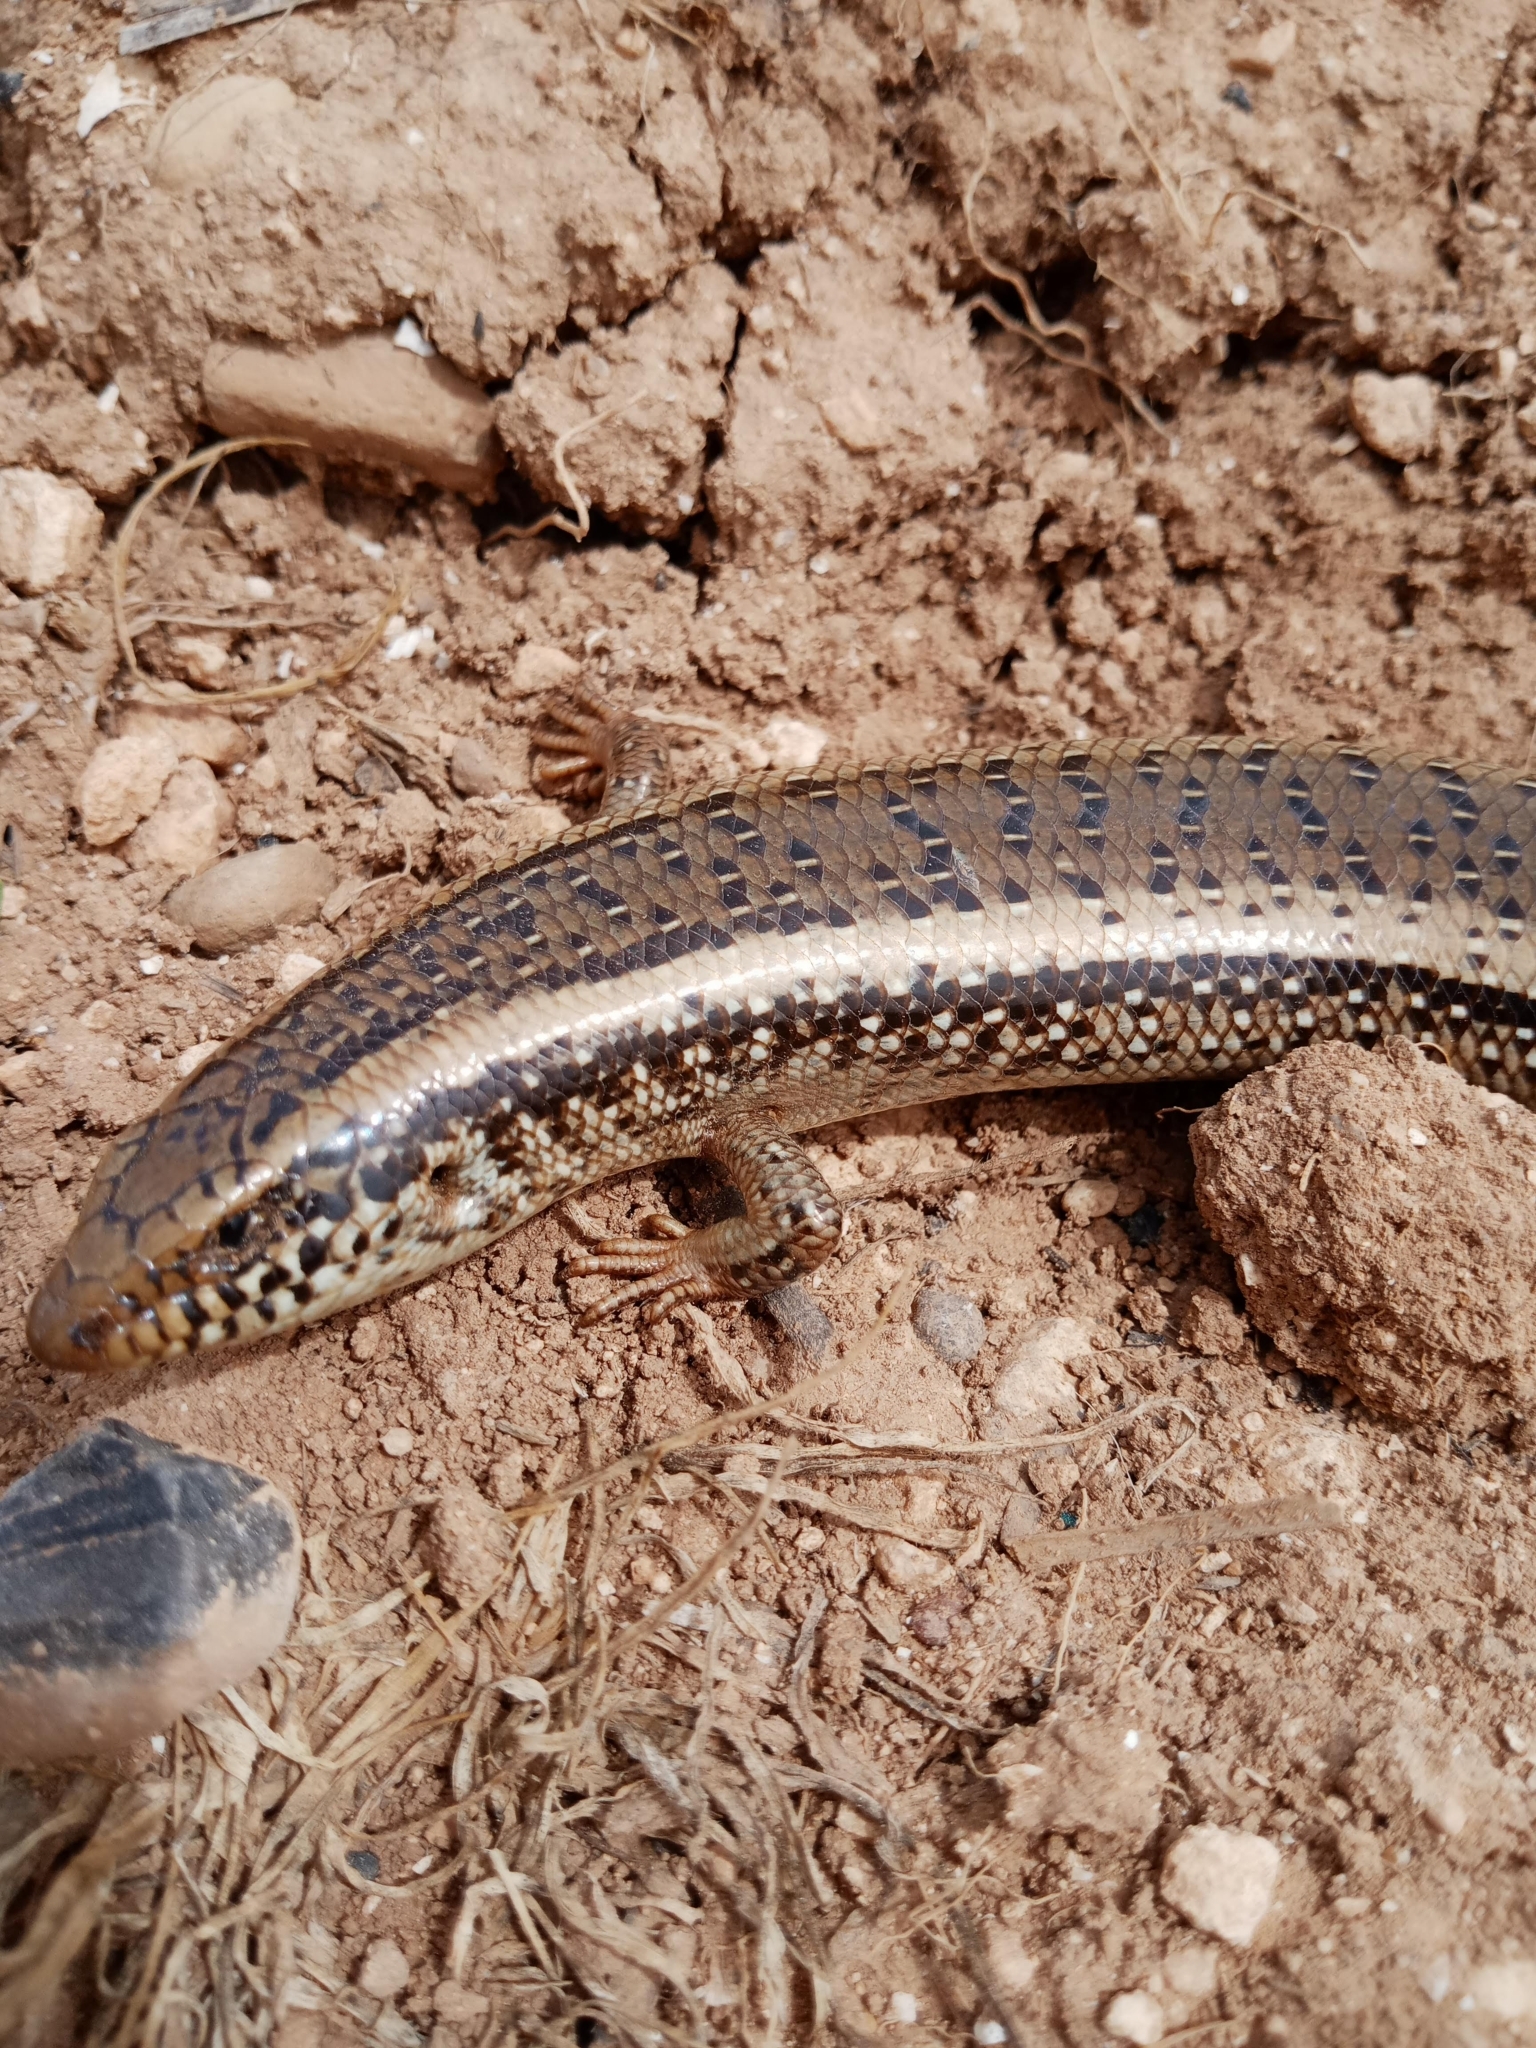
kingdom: Animalia
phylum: Chordata
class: Squamata
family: Scincidae
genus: Chalcides
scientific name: Chalcides ocellatus
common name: Ocellated skink
